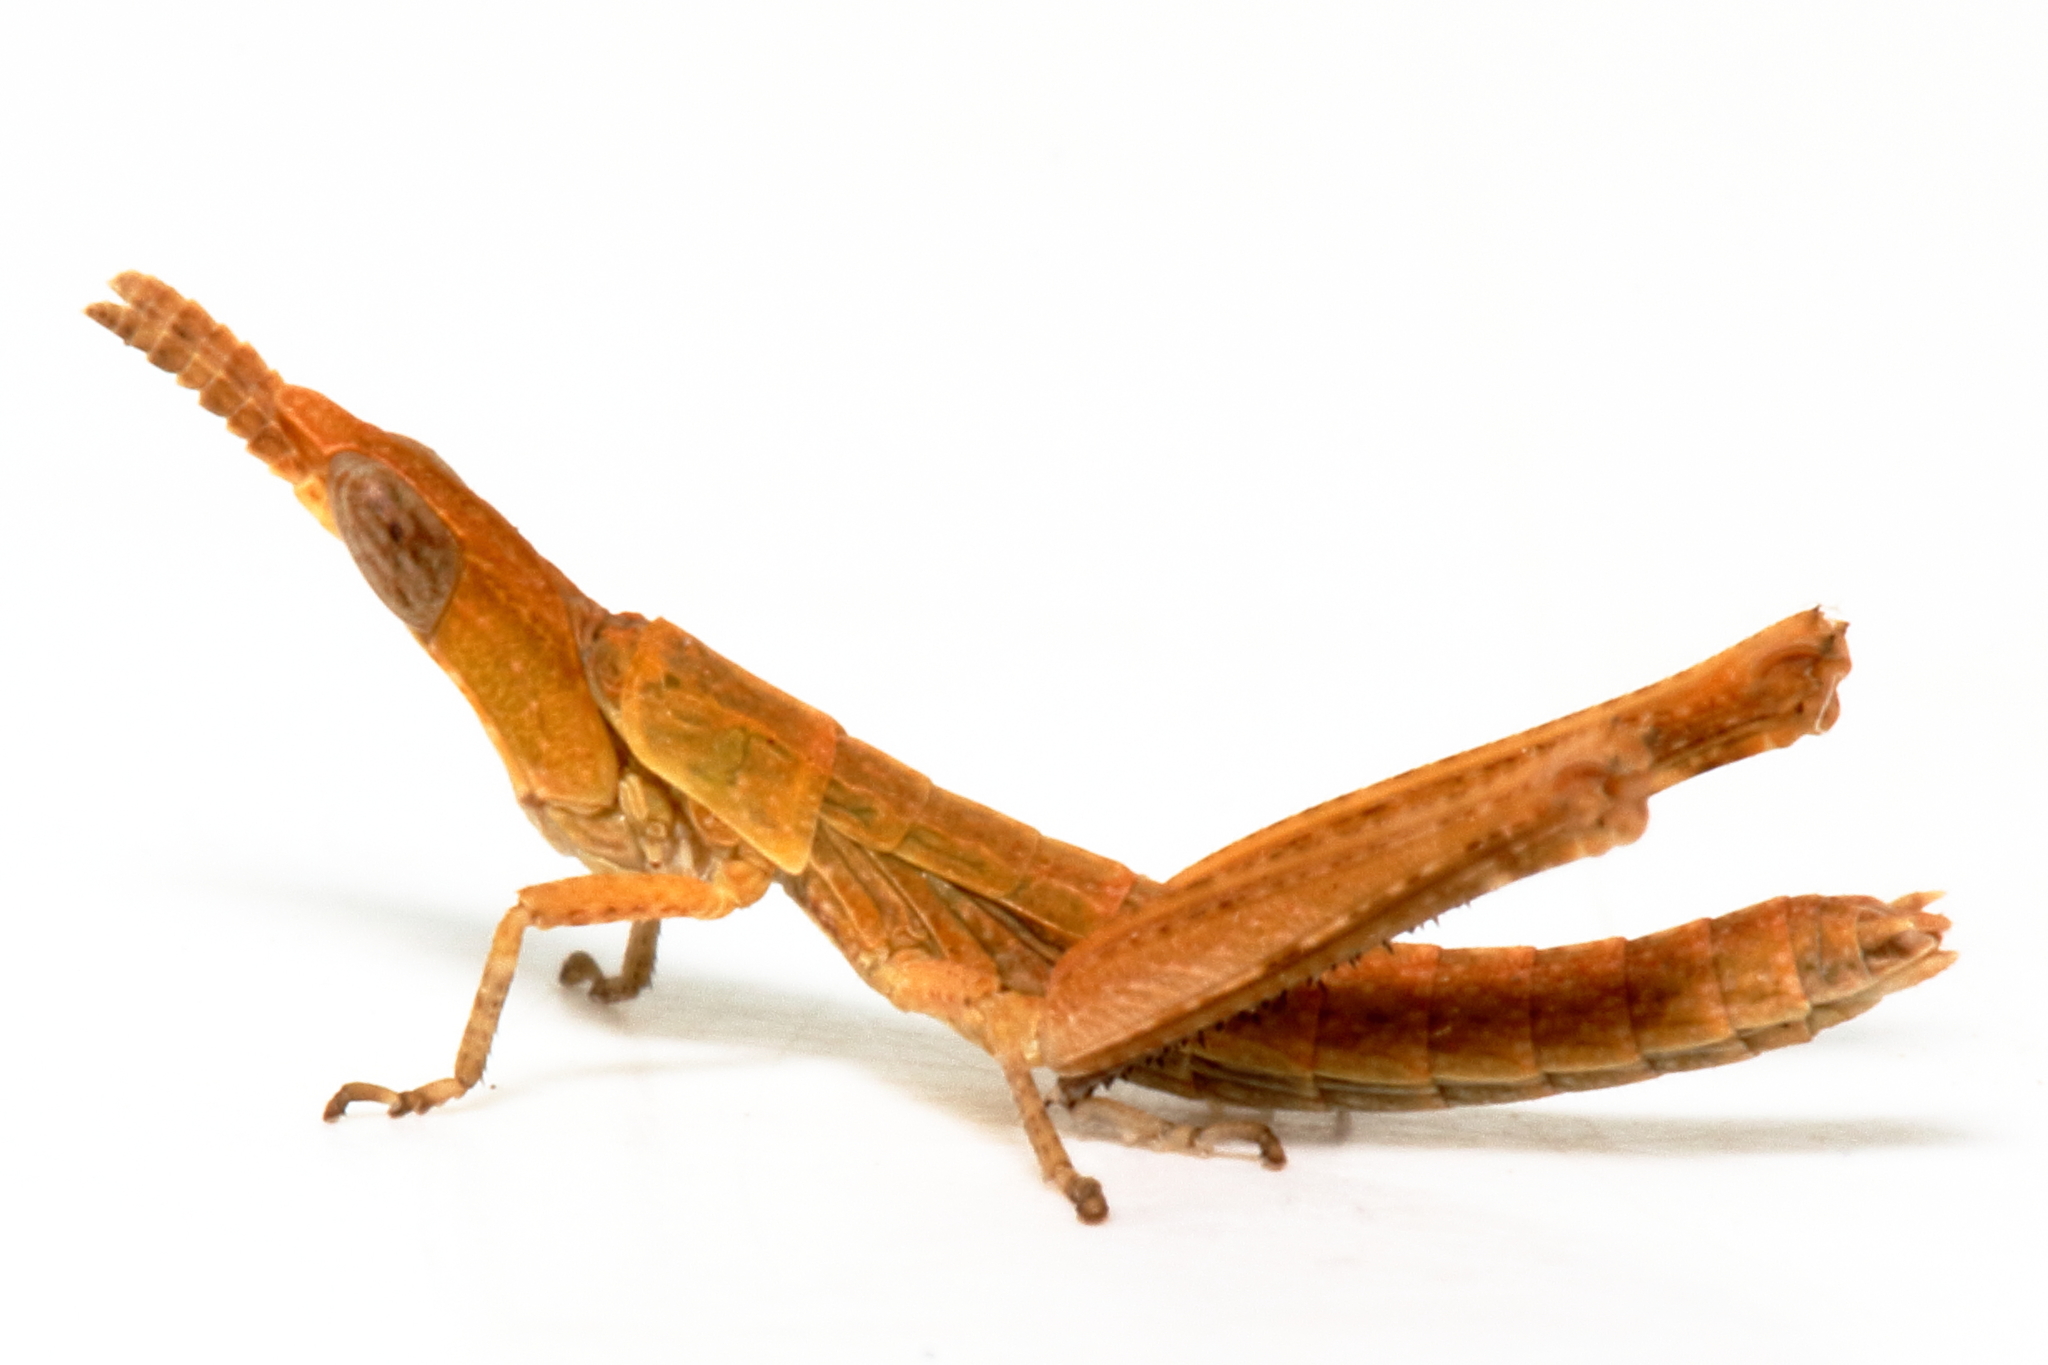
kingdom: Animalia
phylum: Arthropoda
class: Insecta
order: Orthoptera
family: Morabidae
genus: Vandiemenella
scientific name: Vandiemenella viatica
